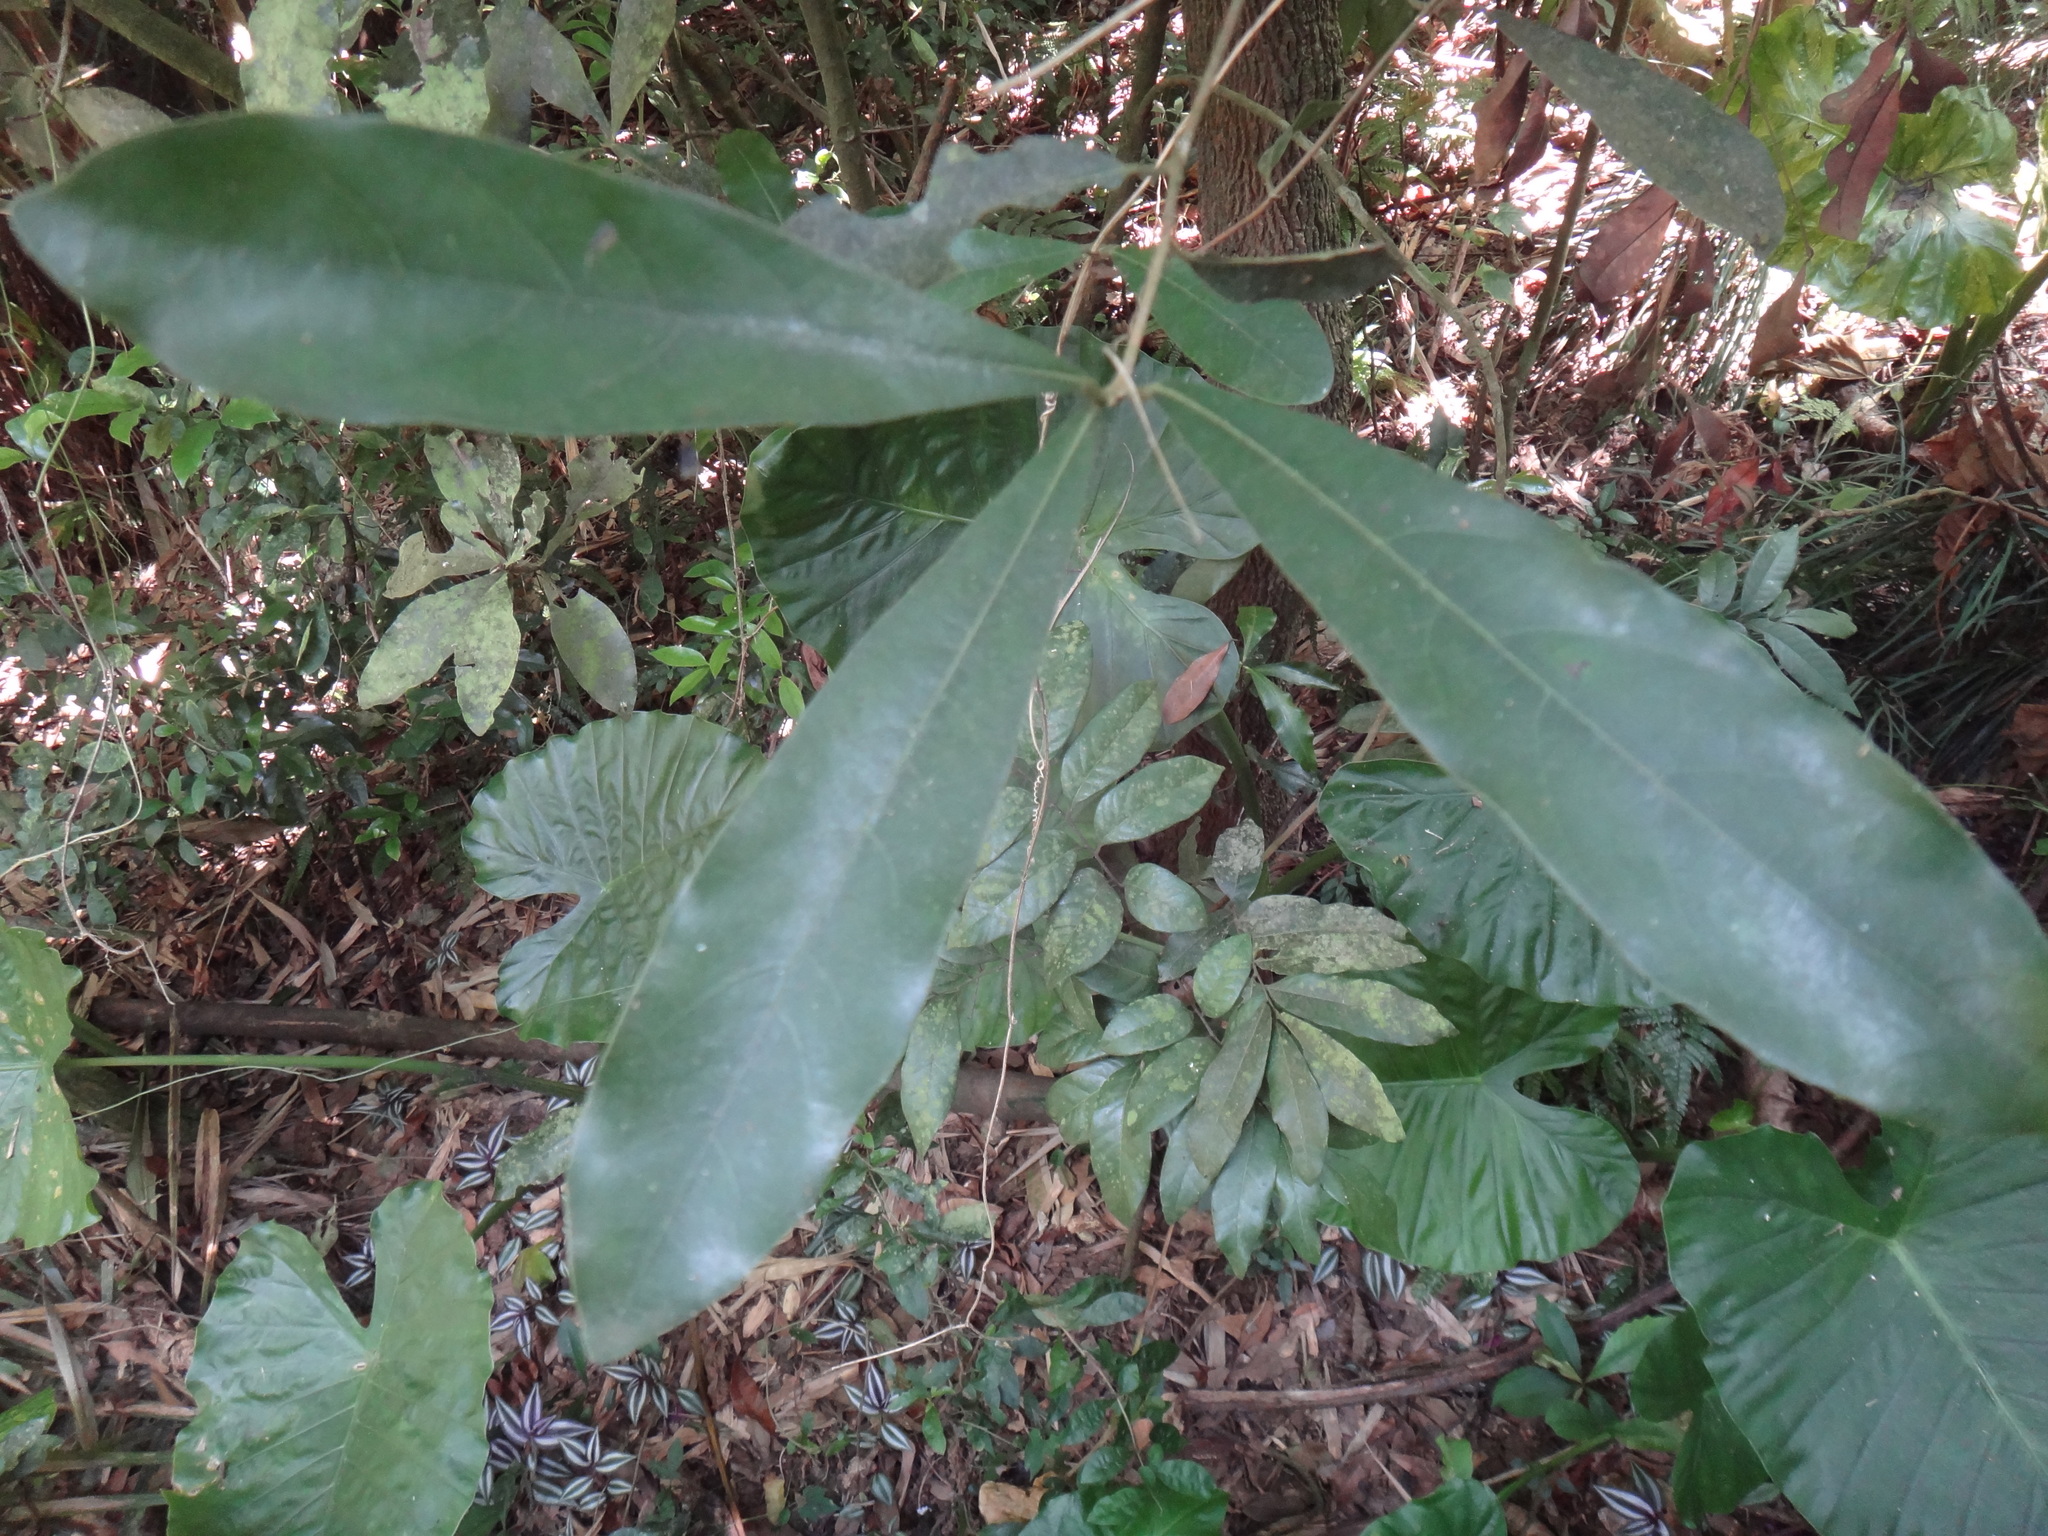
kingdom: Plantae
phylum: Tracheophyta
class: Magnoliopsida
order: Laurales
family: Lauraceae
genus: Litsea
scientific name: Litsea hypophaea
